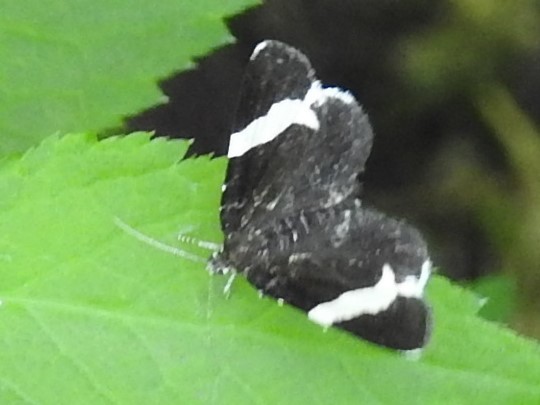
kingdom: Animalia
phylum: Arthropoda
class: Insecta
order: Lepidoptera
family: Geometridae
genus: Trichodezia
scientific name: Trichodezia albovittata
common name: White striped black
